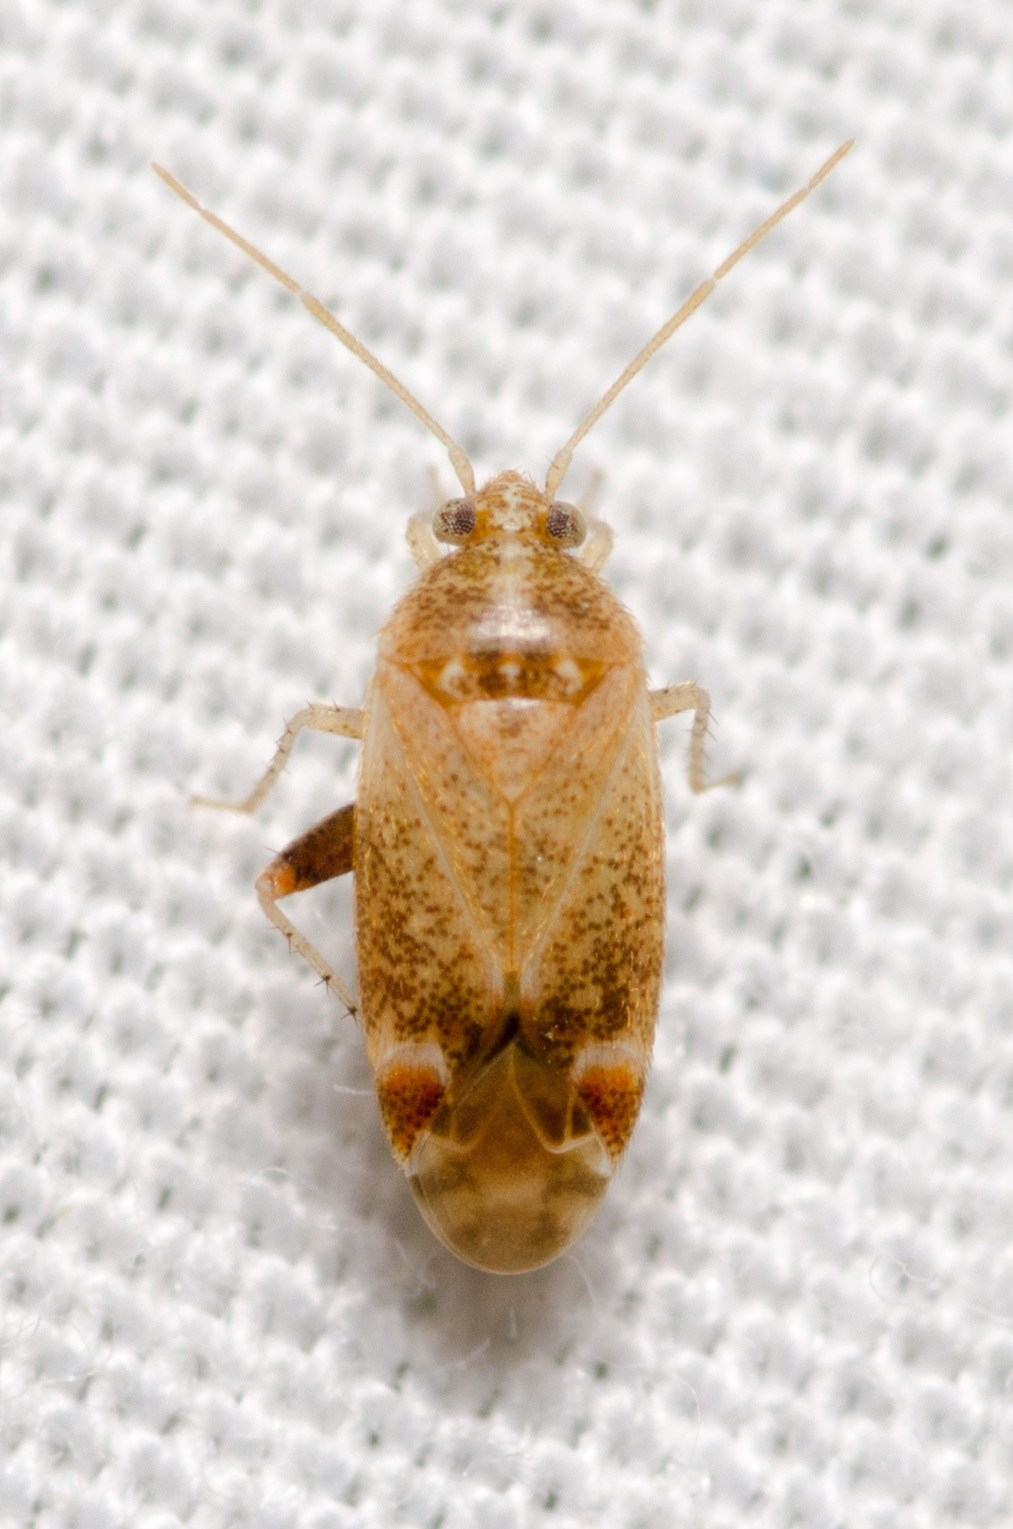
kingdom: Animalia
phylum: Arthropoda
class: Insecta
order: Hemiptera
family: Miridae
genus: Hamatophylus
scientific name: Hamatophylus guttulosus
